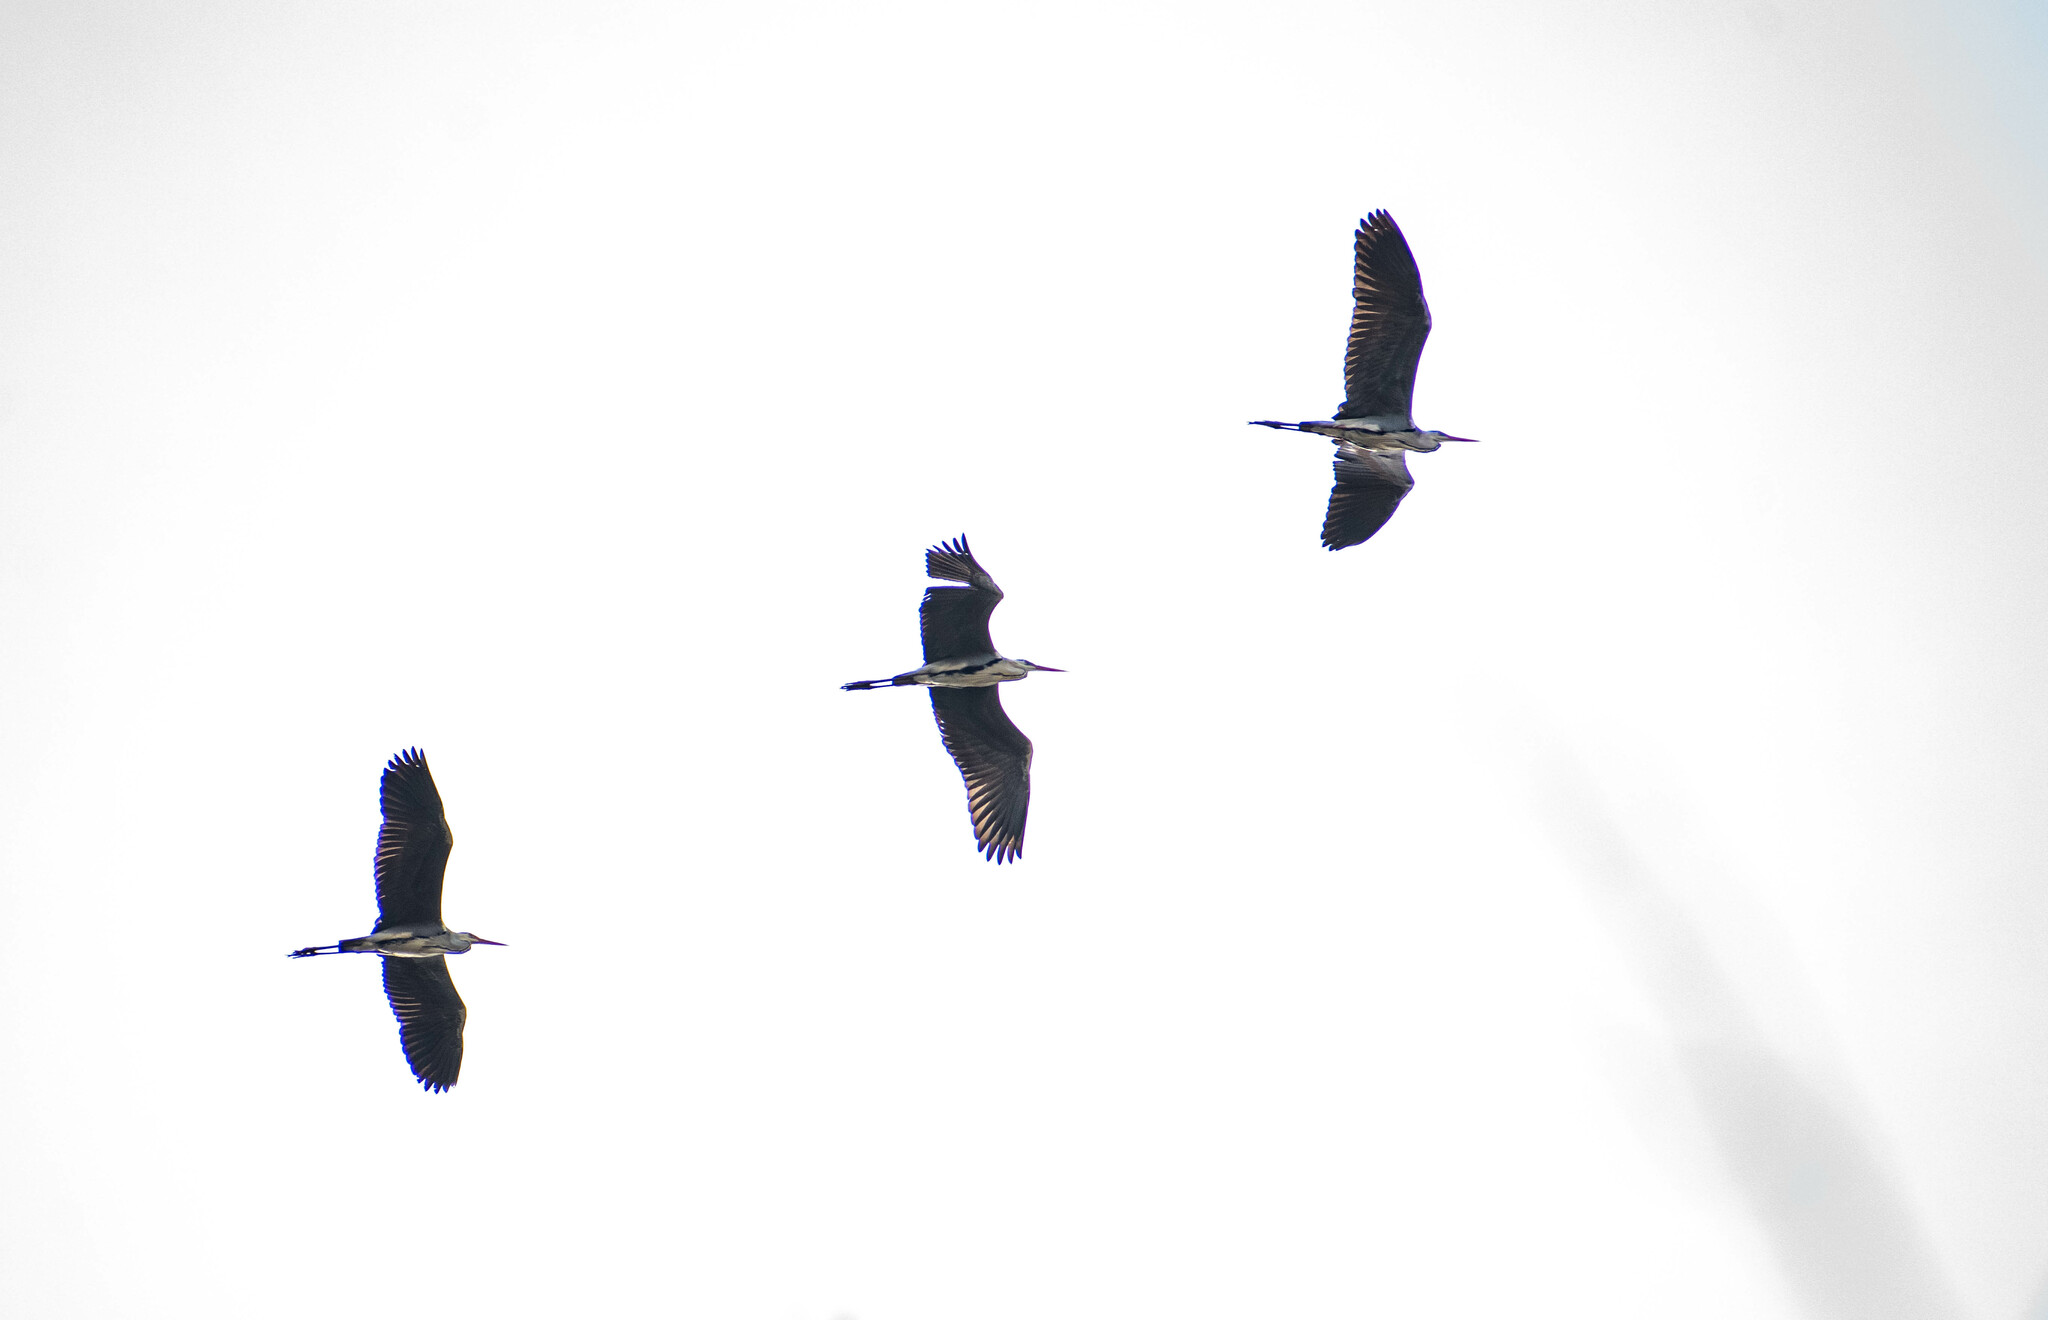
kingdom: Animalia
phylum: Chordata
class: Aves
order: Pelecaniformes
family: Ardeidae
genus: Ardea
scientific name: Ardea cinerea
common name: Grey heron
